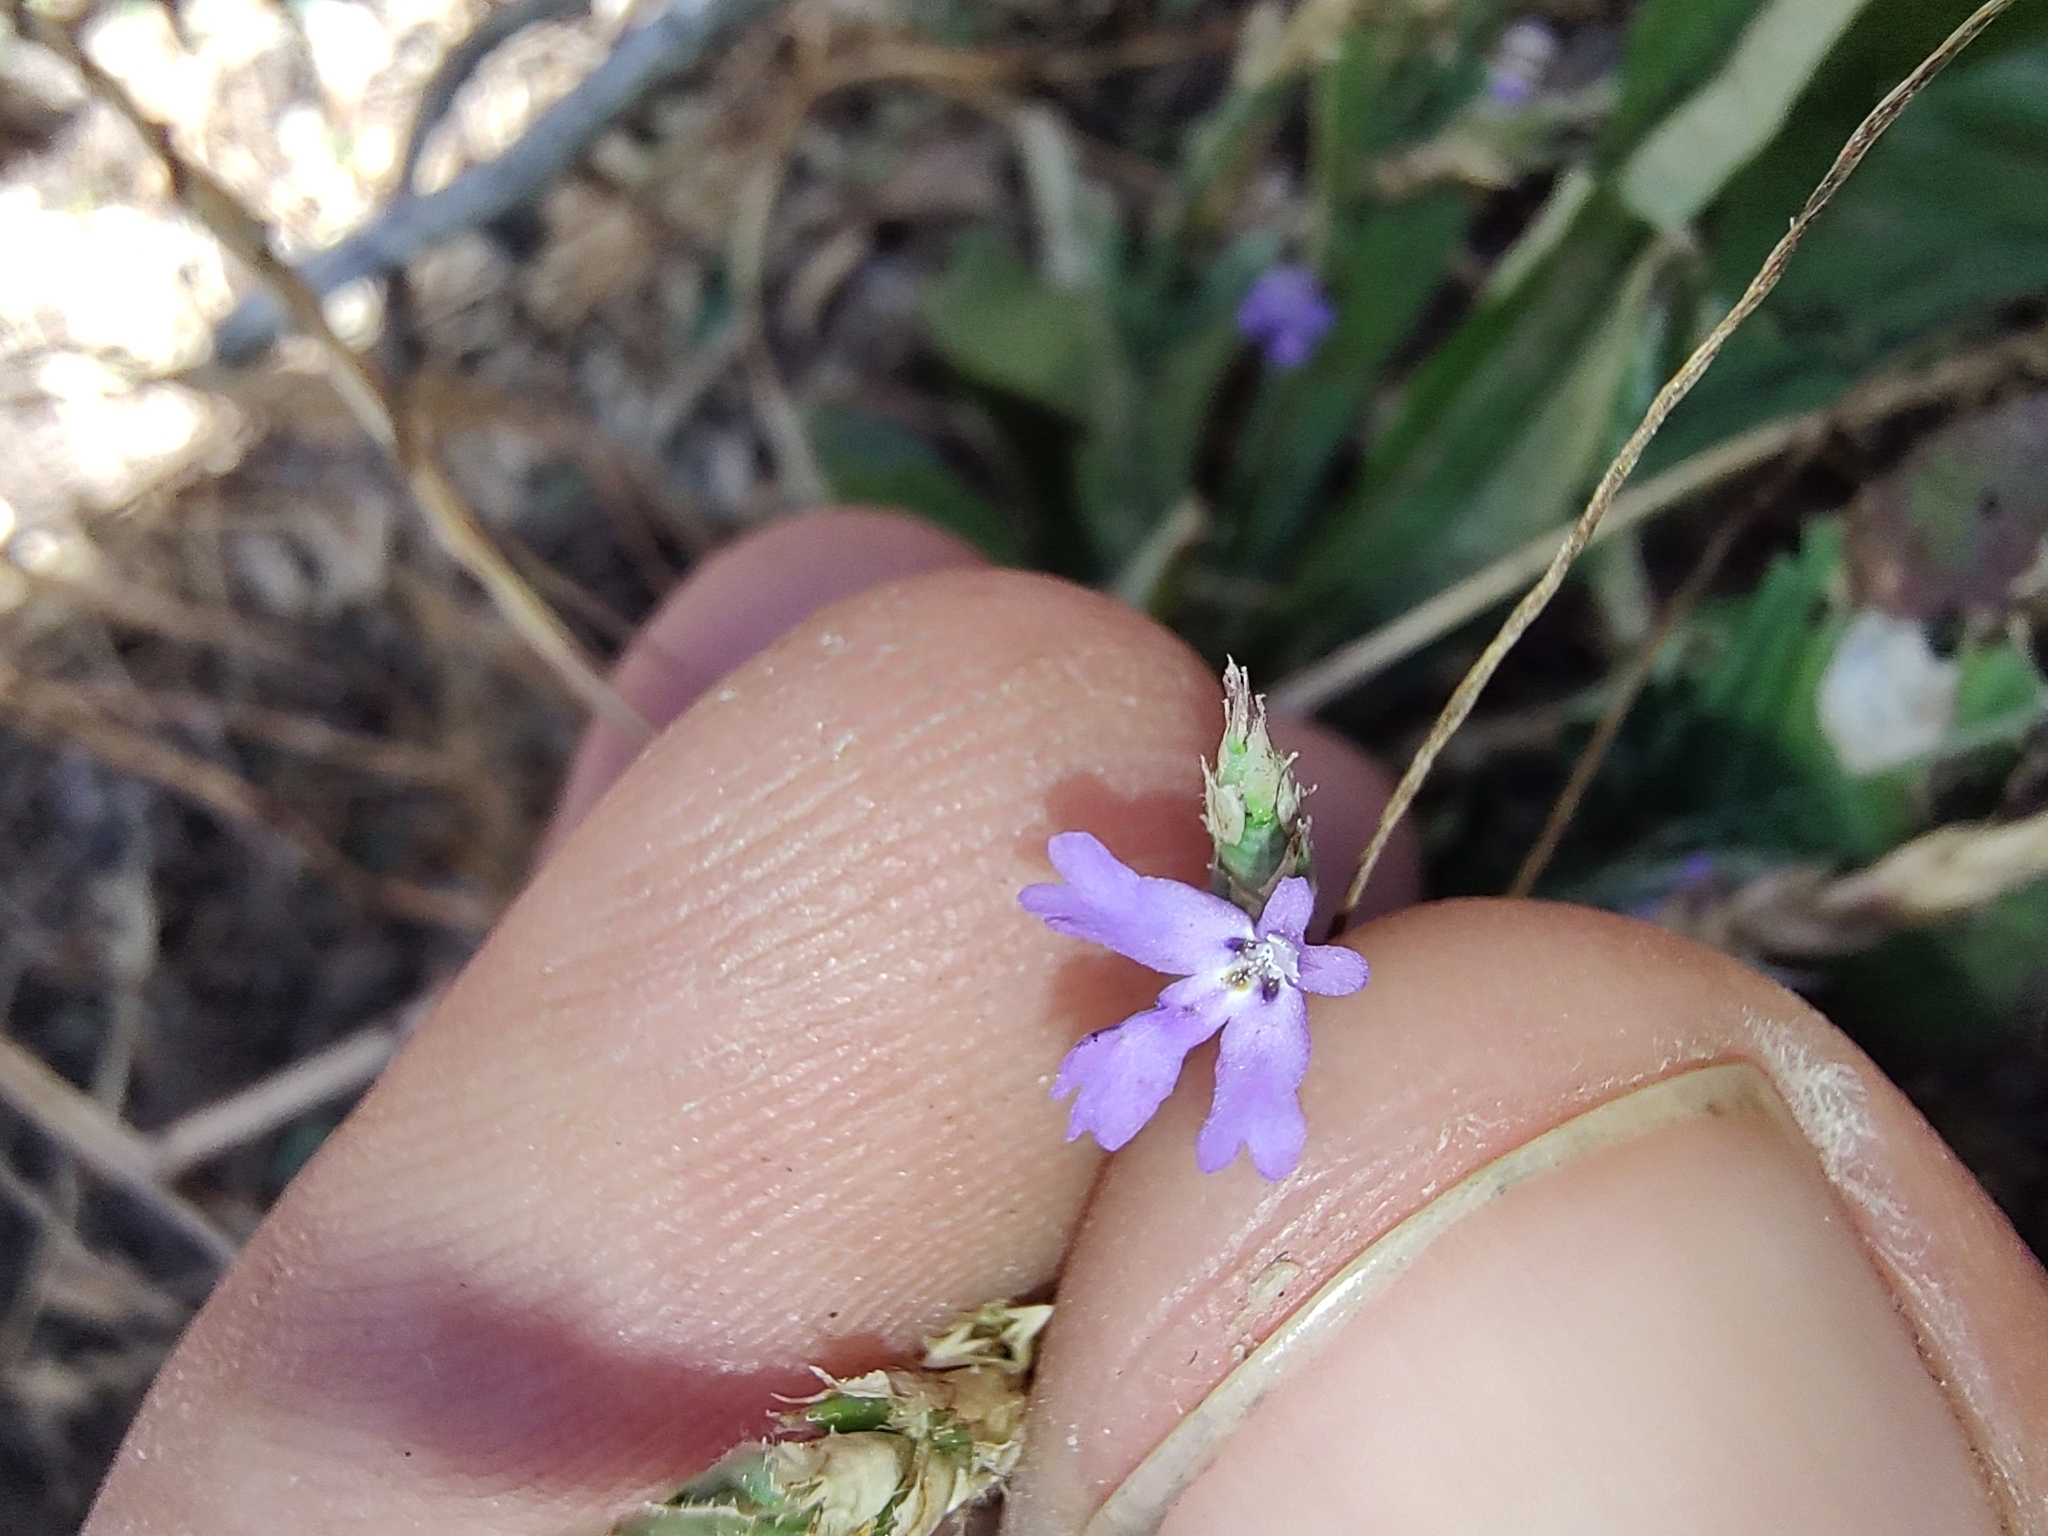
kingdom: Plantae
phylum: Tracheophyta
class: Magnoliopsida
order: Lamiales
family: Acanthaceae
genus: Elytraria
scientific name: Elytraria imbricata
